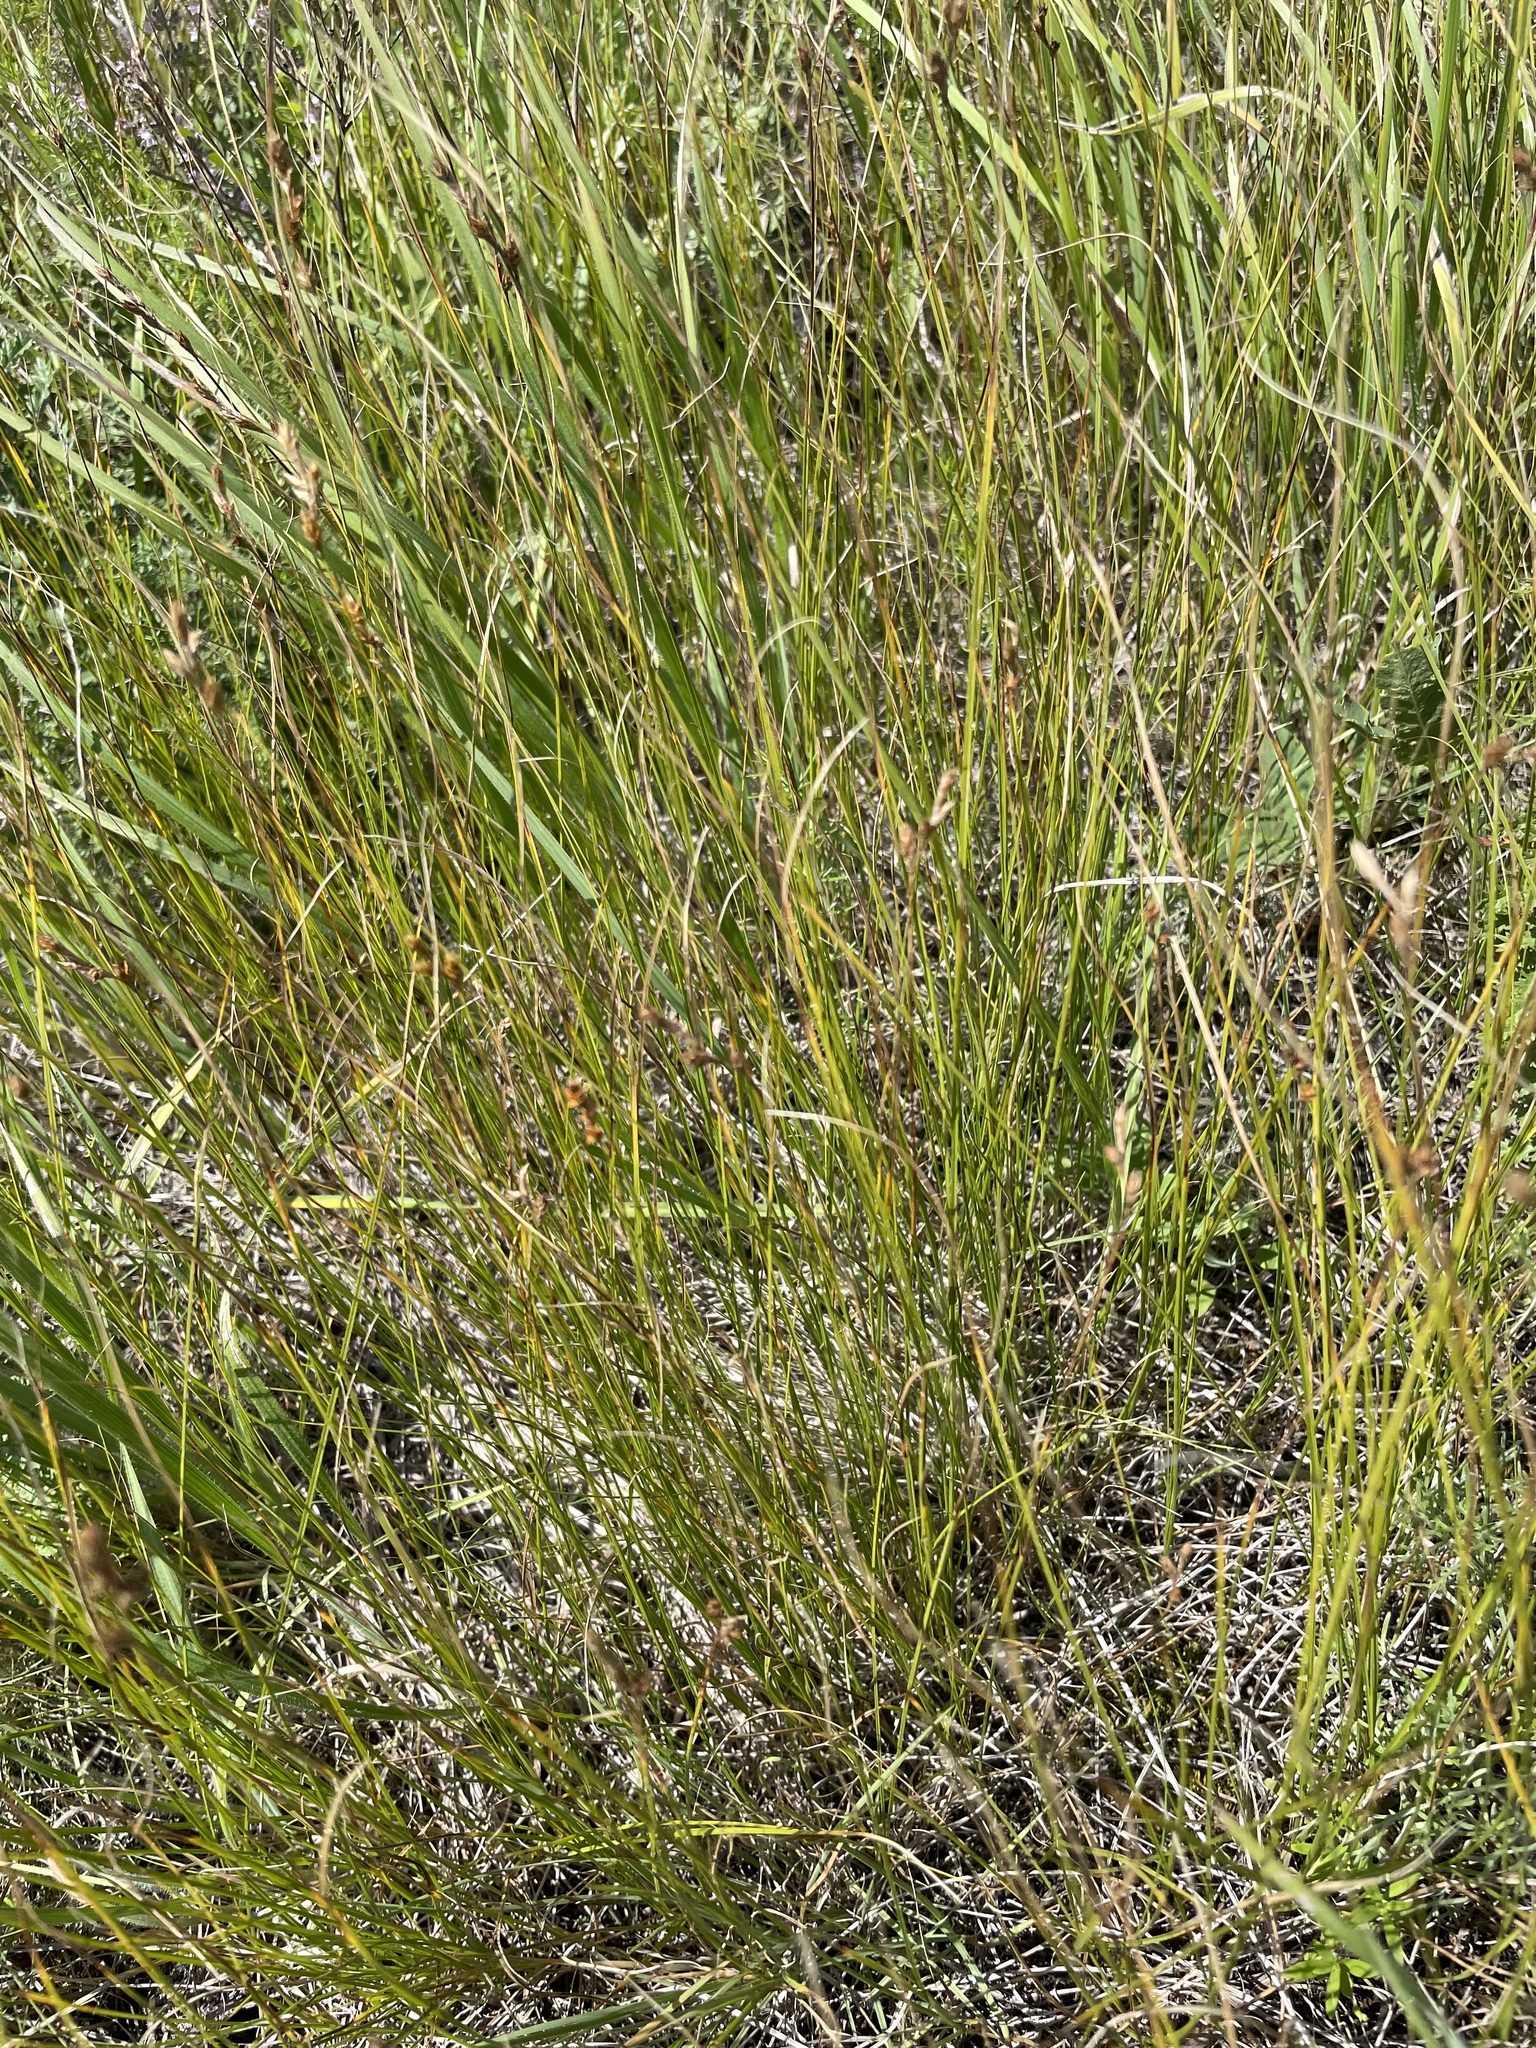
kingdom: Plantae
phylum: Tracheophyta
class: Liliopsida
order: Poales
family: Cyperaceae
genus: Carex
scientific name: Carex praecox
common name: Early sedge
